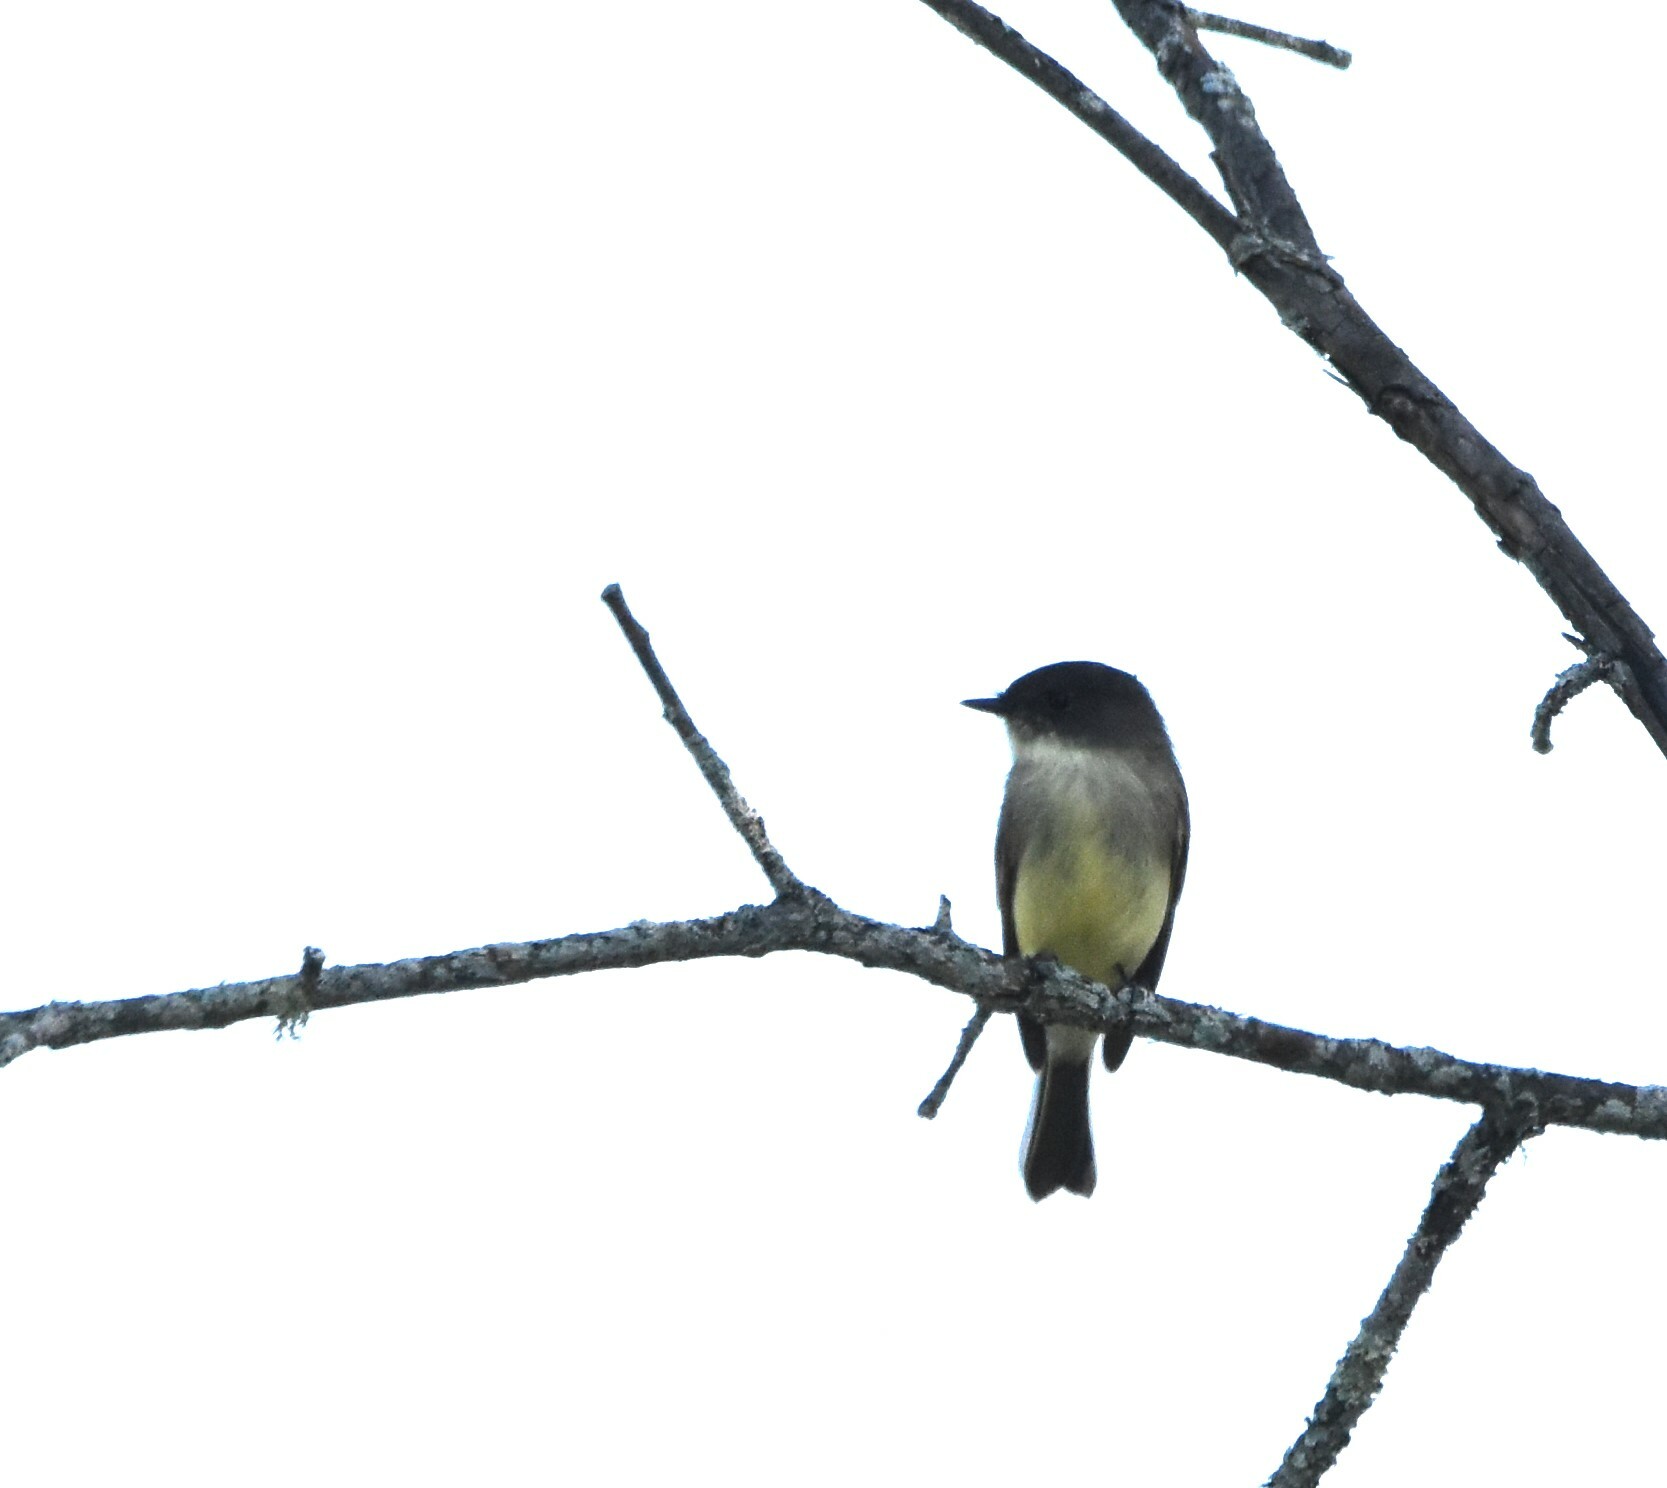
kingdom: Animalia
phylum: Chordata
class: Aves
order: Passeriformes
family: Tyrannidae
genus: Sayornis
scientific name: Sayornis phoebe
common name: Eastern phoebe
